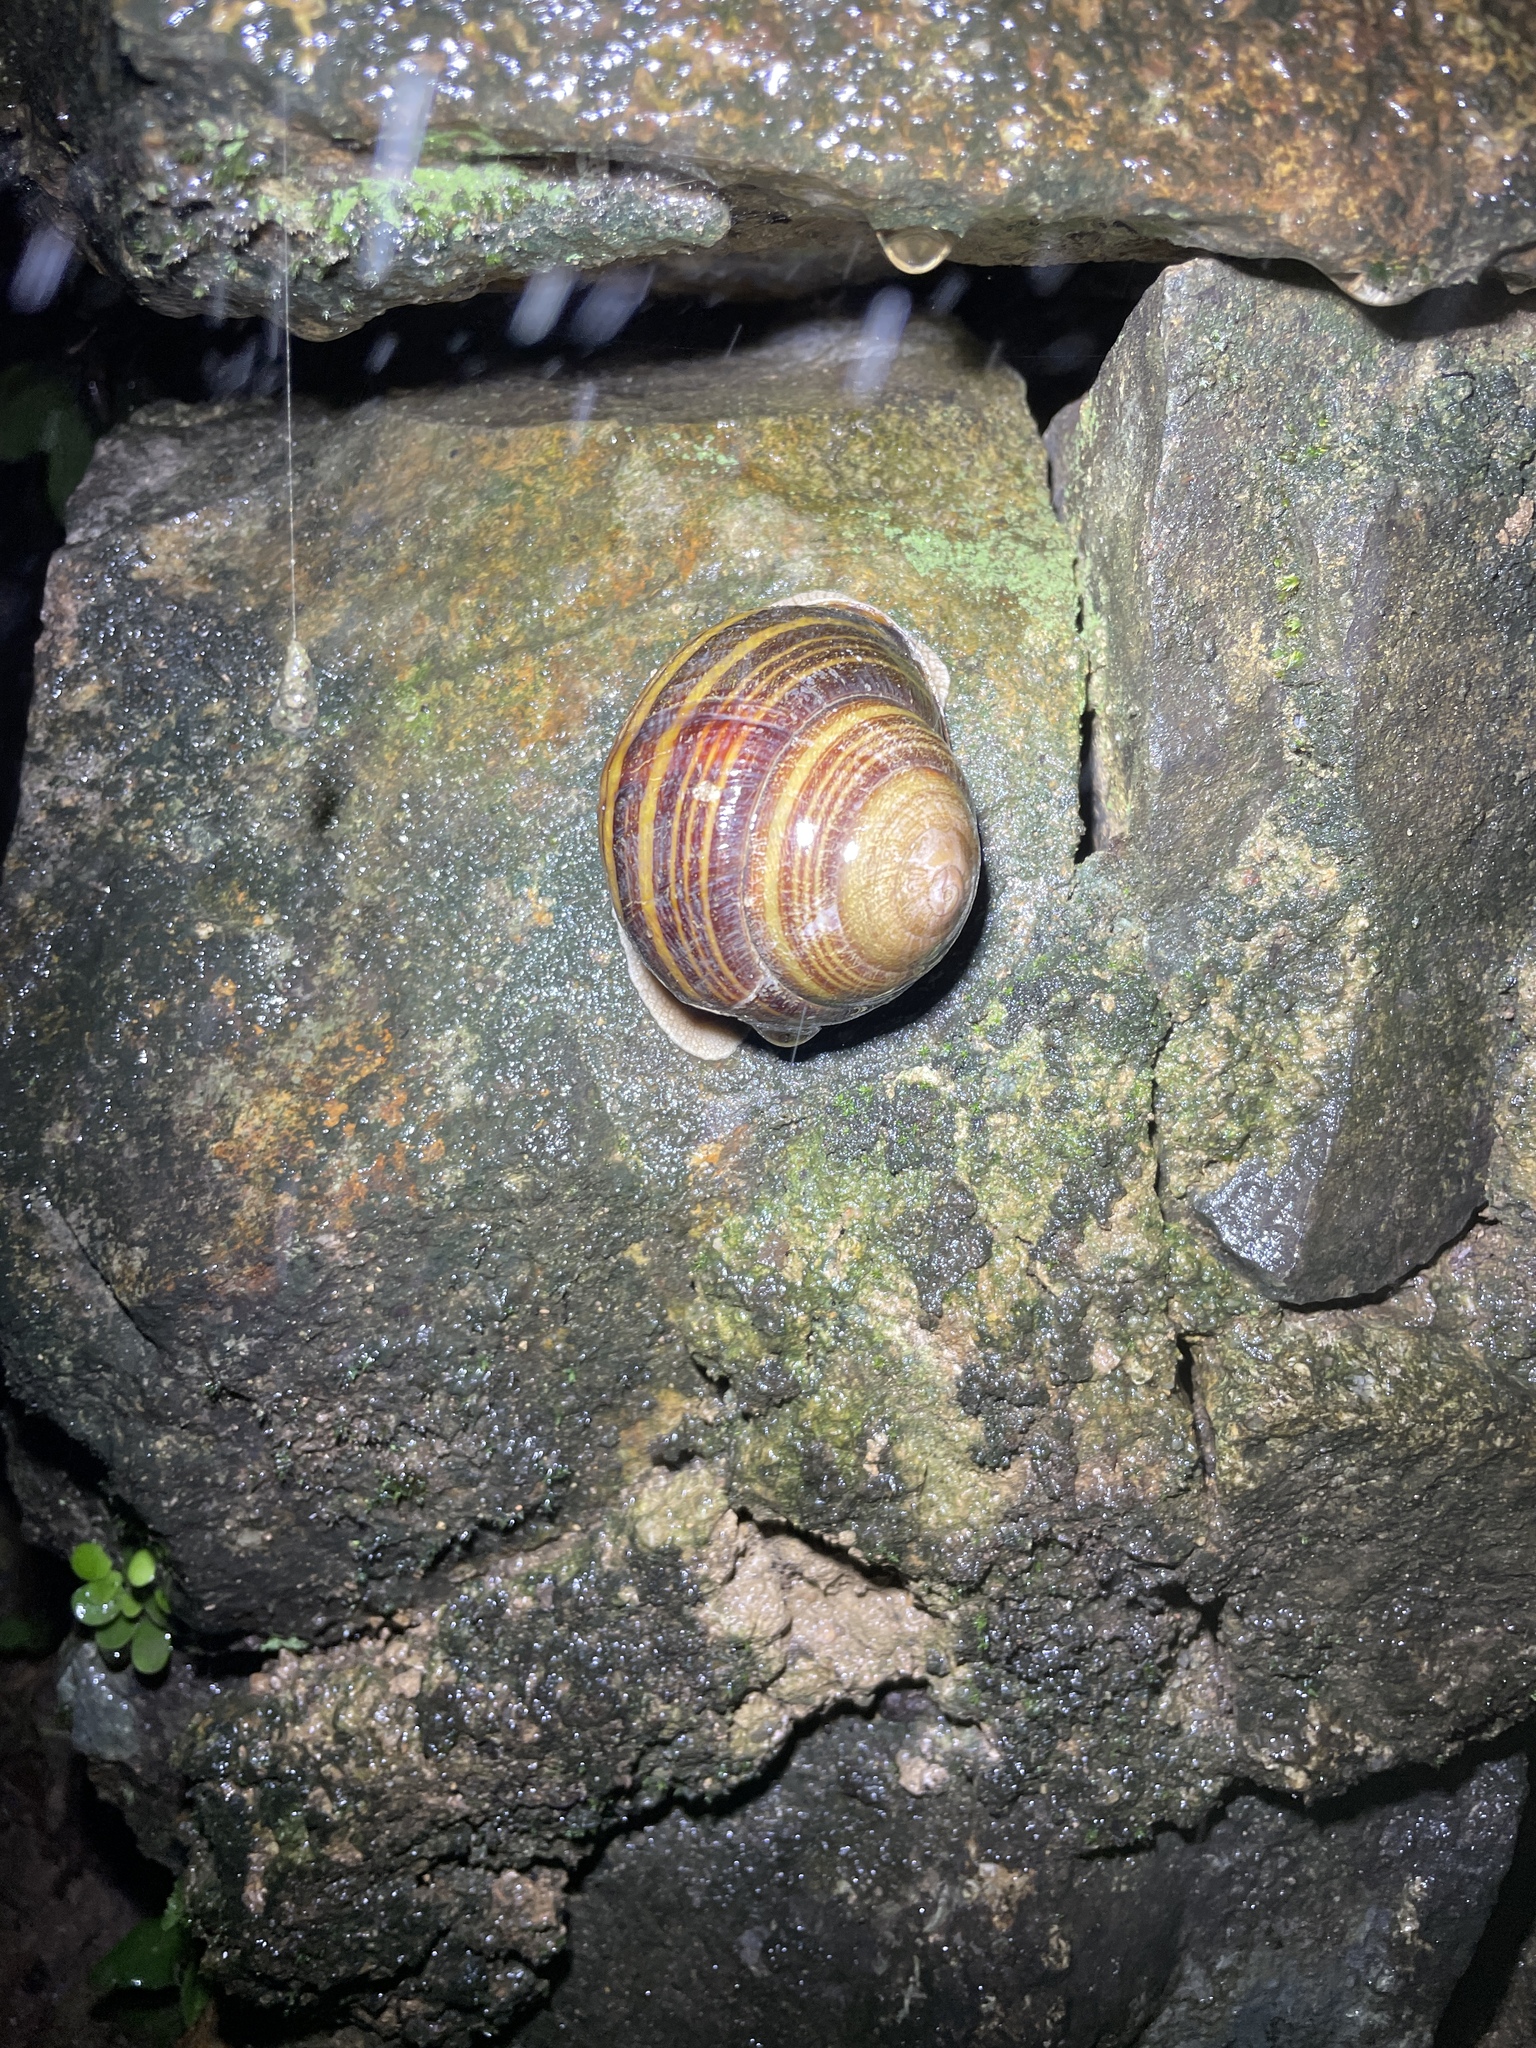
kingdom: Animalia
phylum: Mollusca
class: Gastropoda
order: Stylommatophora
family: Camaenidae
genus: Camaena
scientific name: Camaena hainanensis
